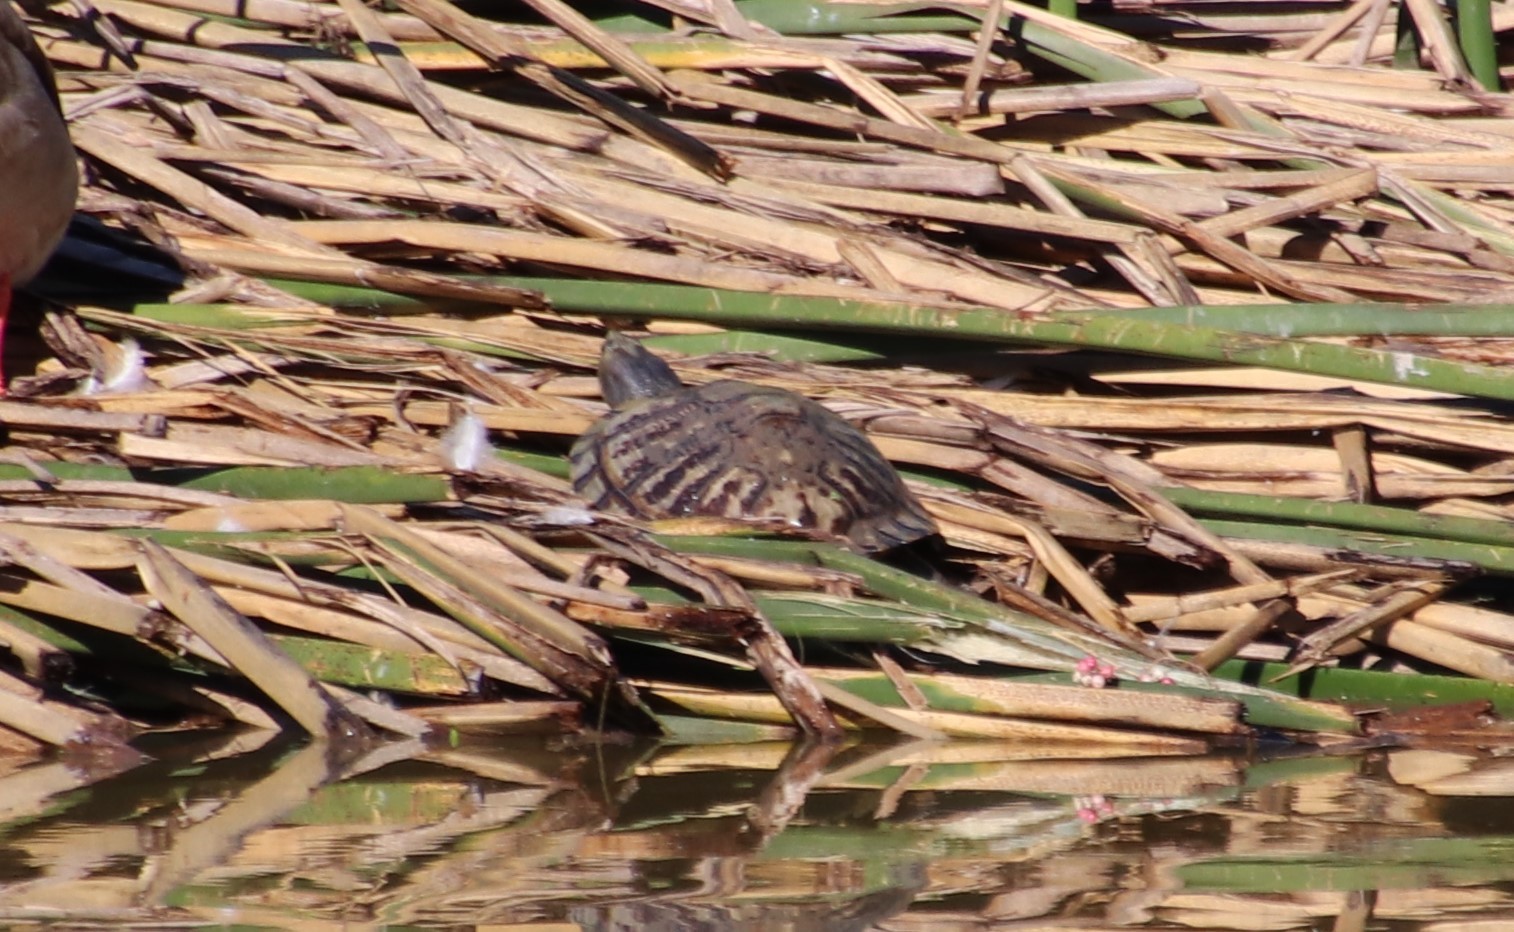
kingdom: Animalia
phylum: Chordata
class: Testudines
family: Emydidae
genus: Trachemys
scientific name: Trachemys scripta
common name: Slider
